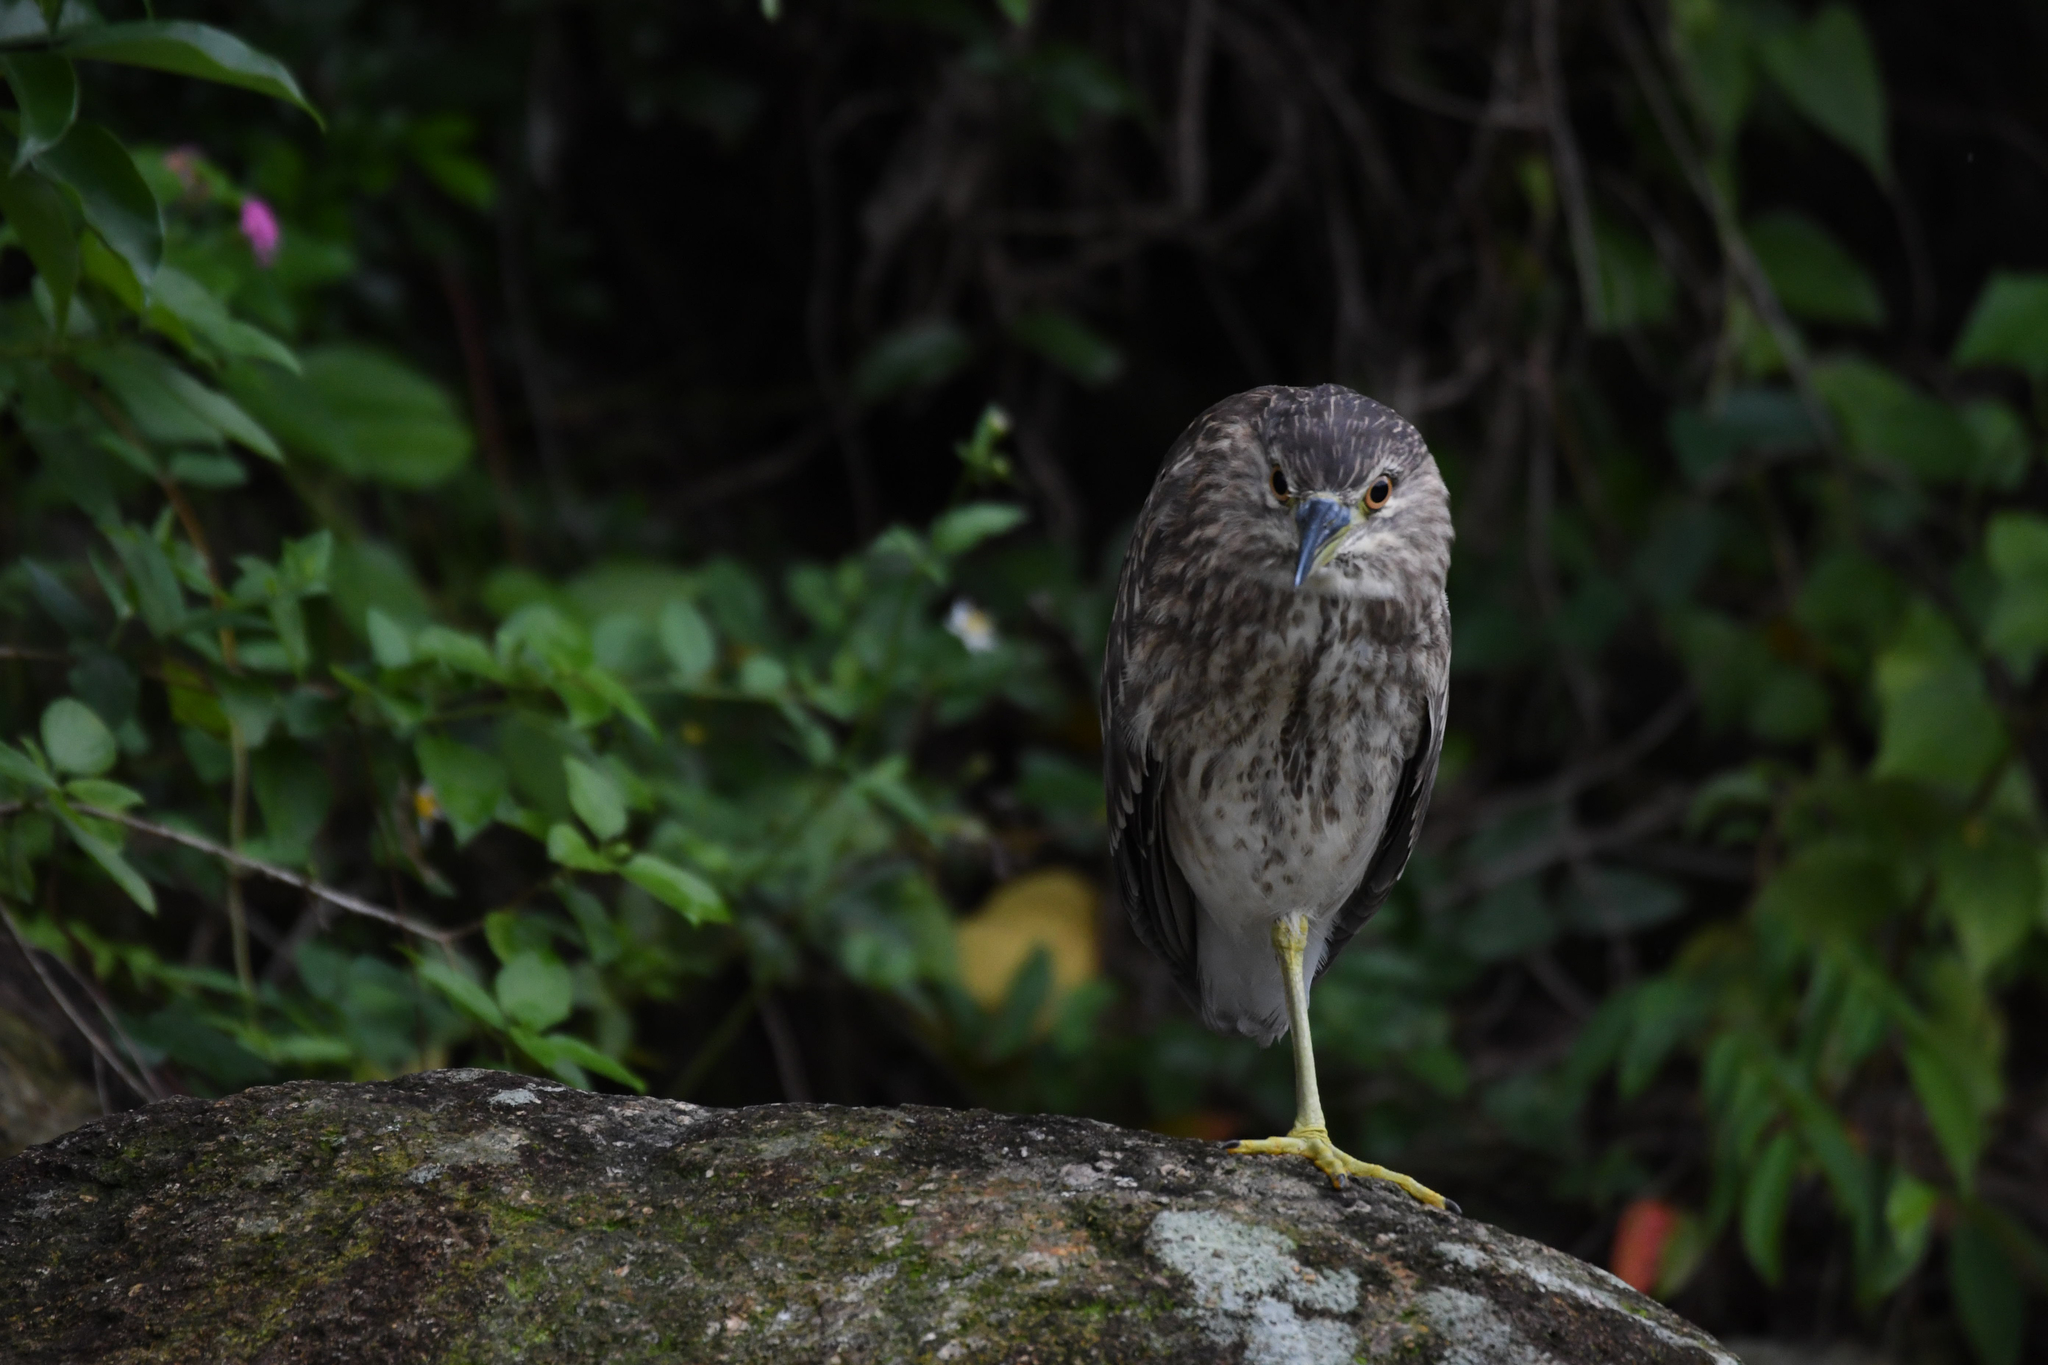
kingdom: Animalia
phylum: Chordata
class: Aves
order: Pelecaniformes
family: Ardeidae
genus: Nycticorax
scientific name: Nycticorax nycticorax
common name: Black-crowned night heron
